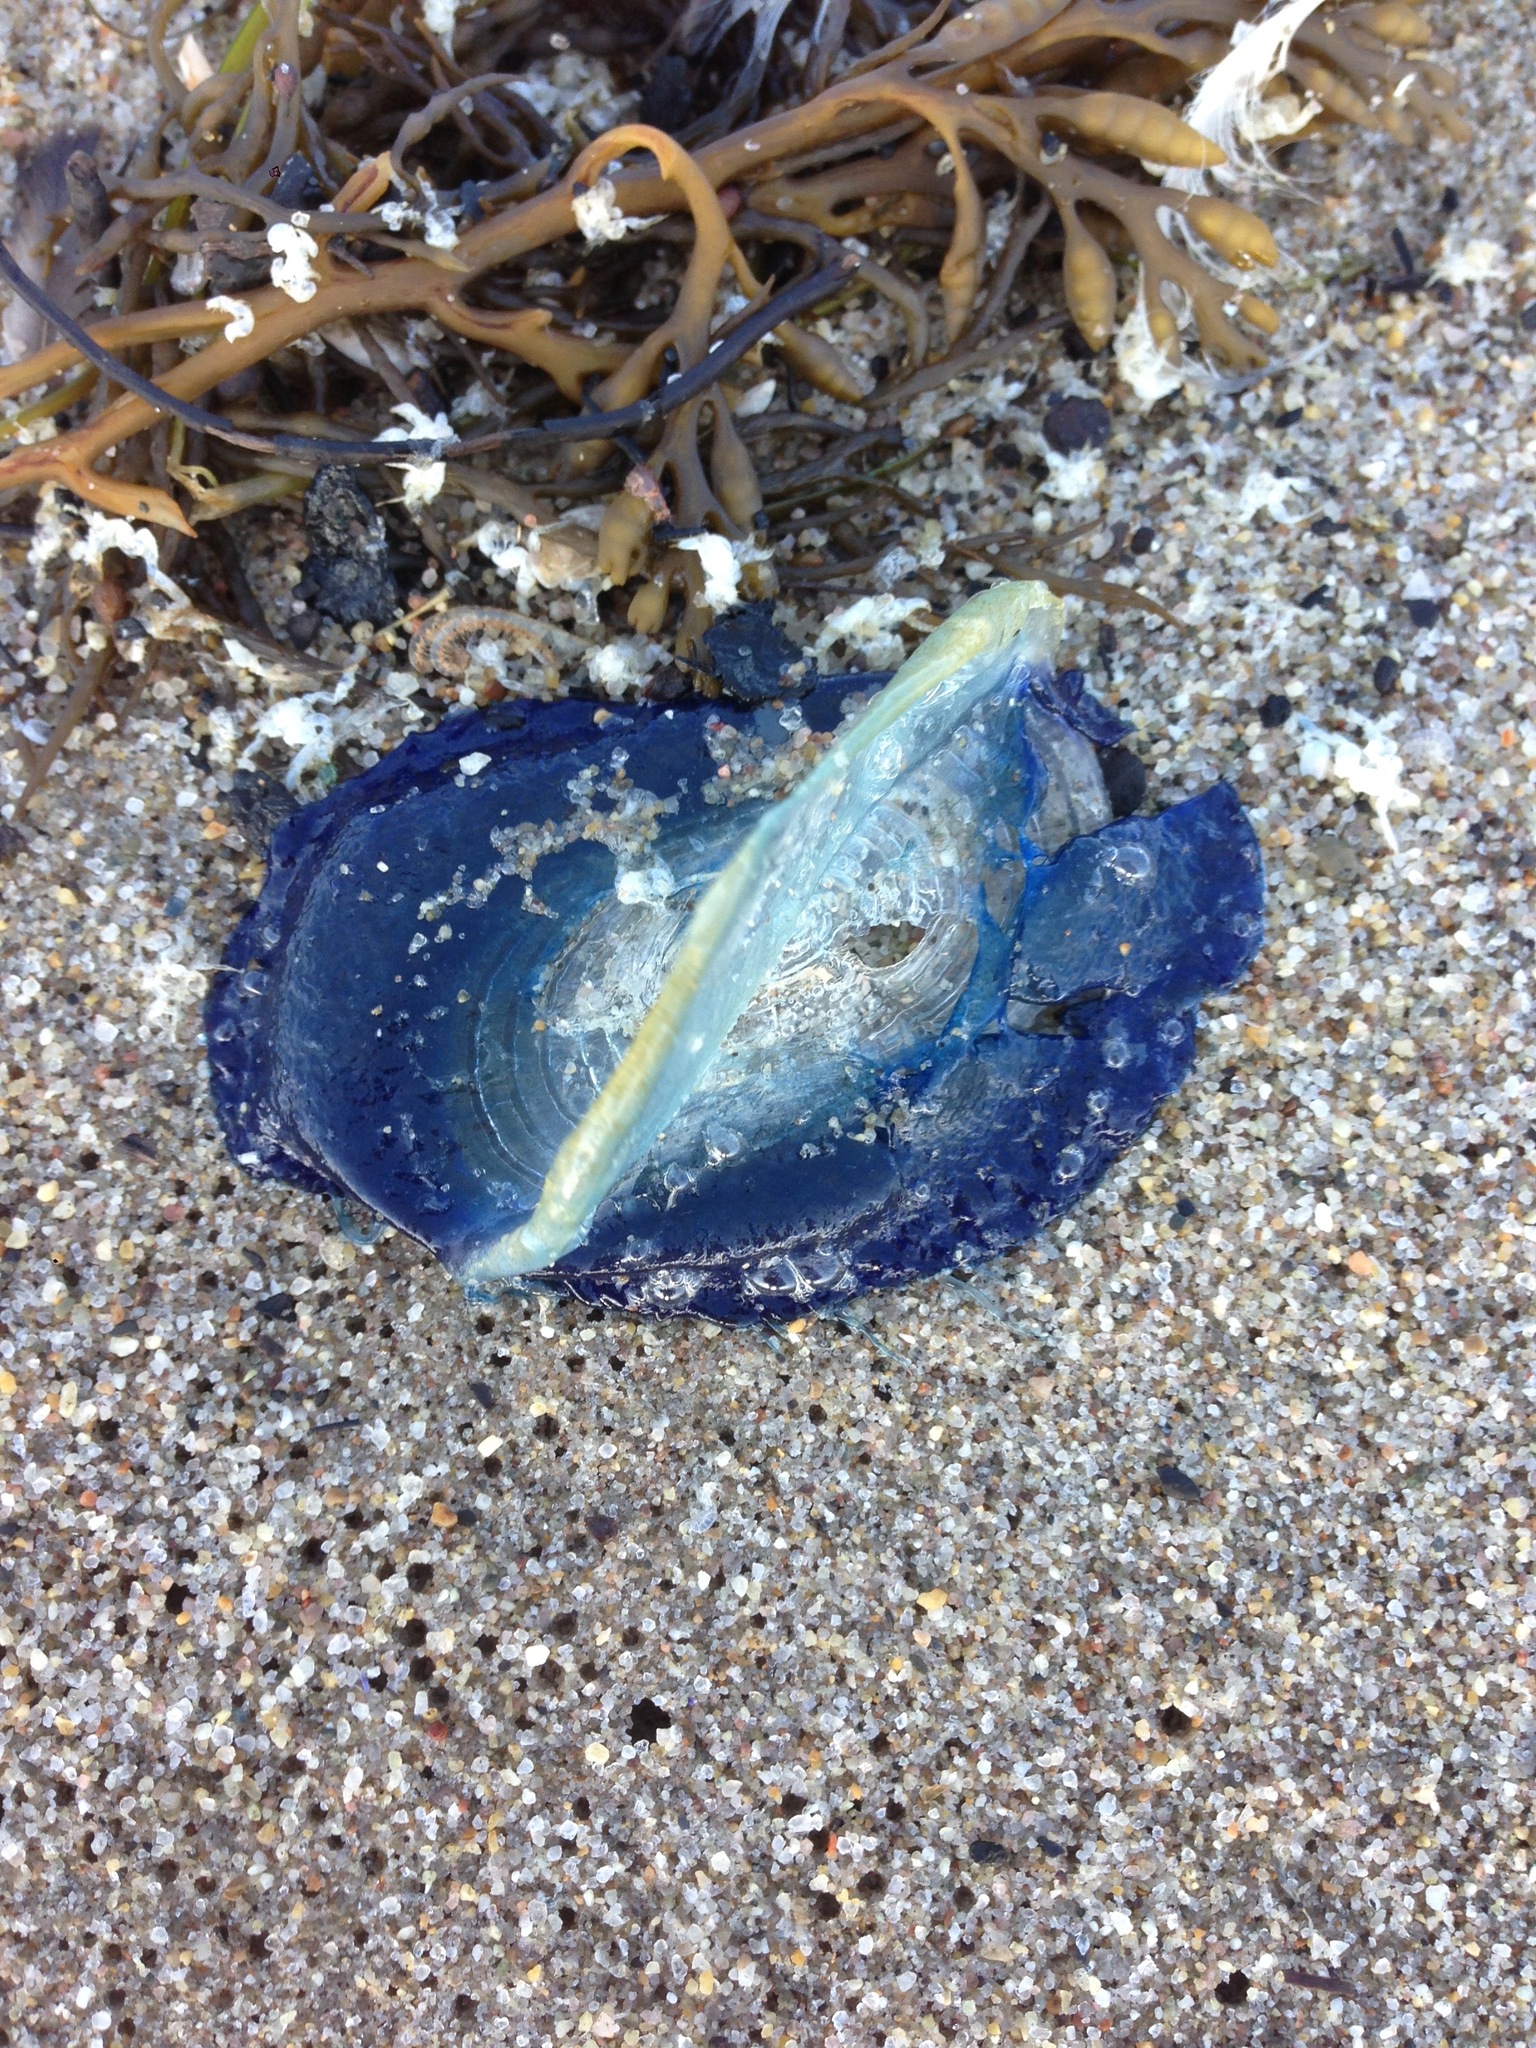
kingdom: Animalia
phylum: Cnidaria
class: Hydrozoa
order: Anthoathecata
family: Porpitidae
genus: Velella
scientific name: Velella velella
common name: By-the-wind-sailor
